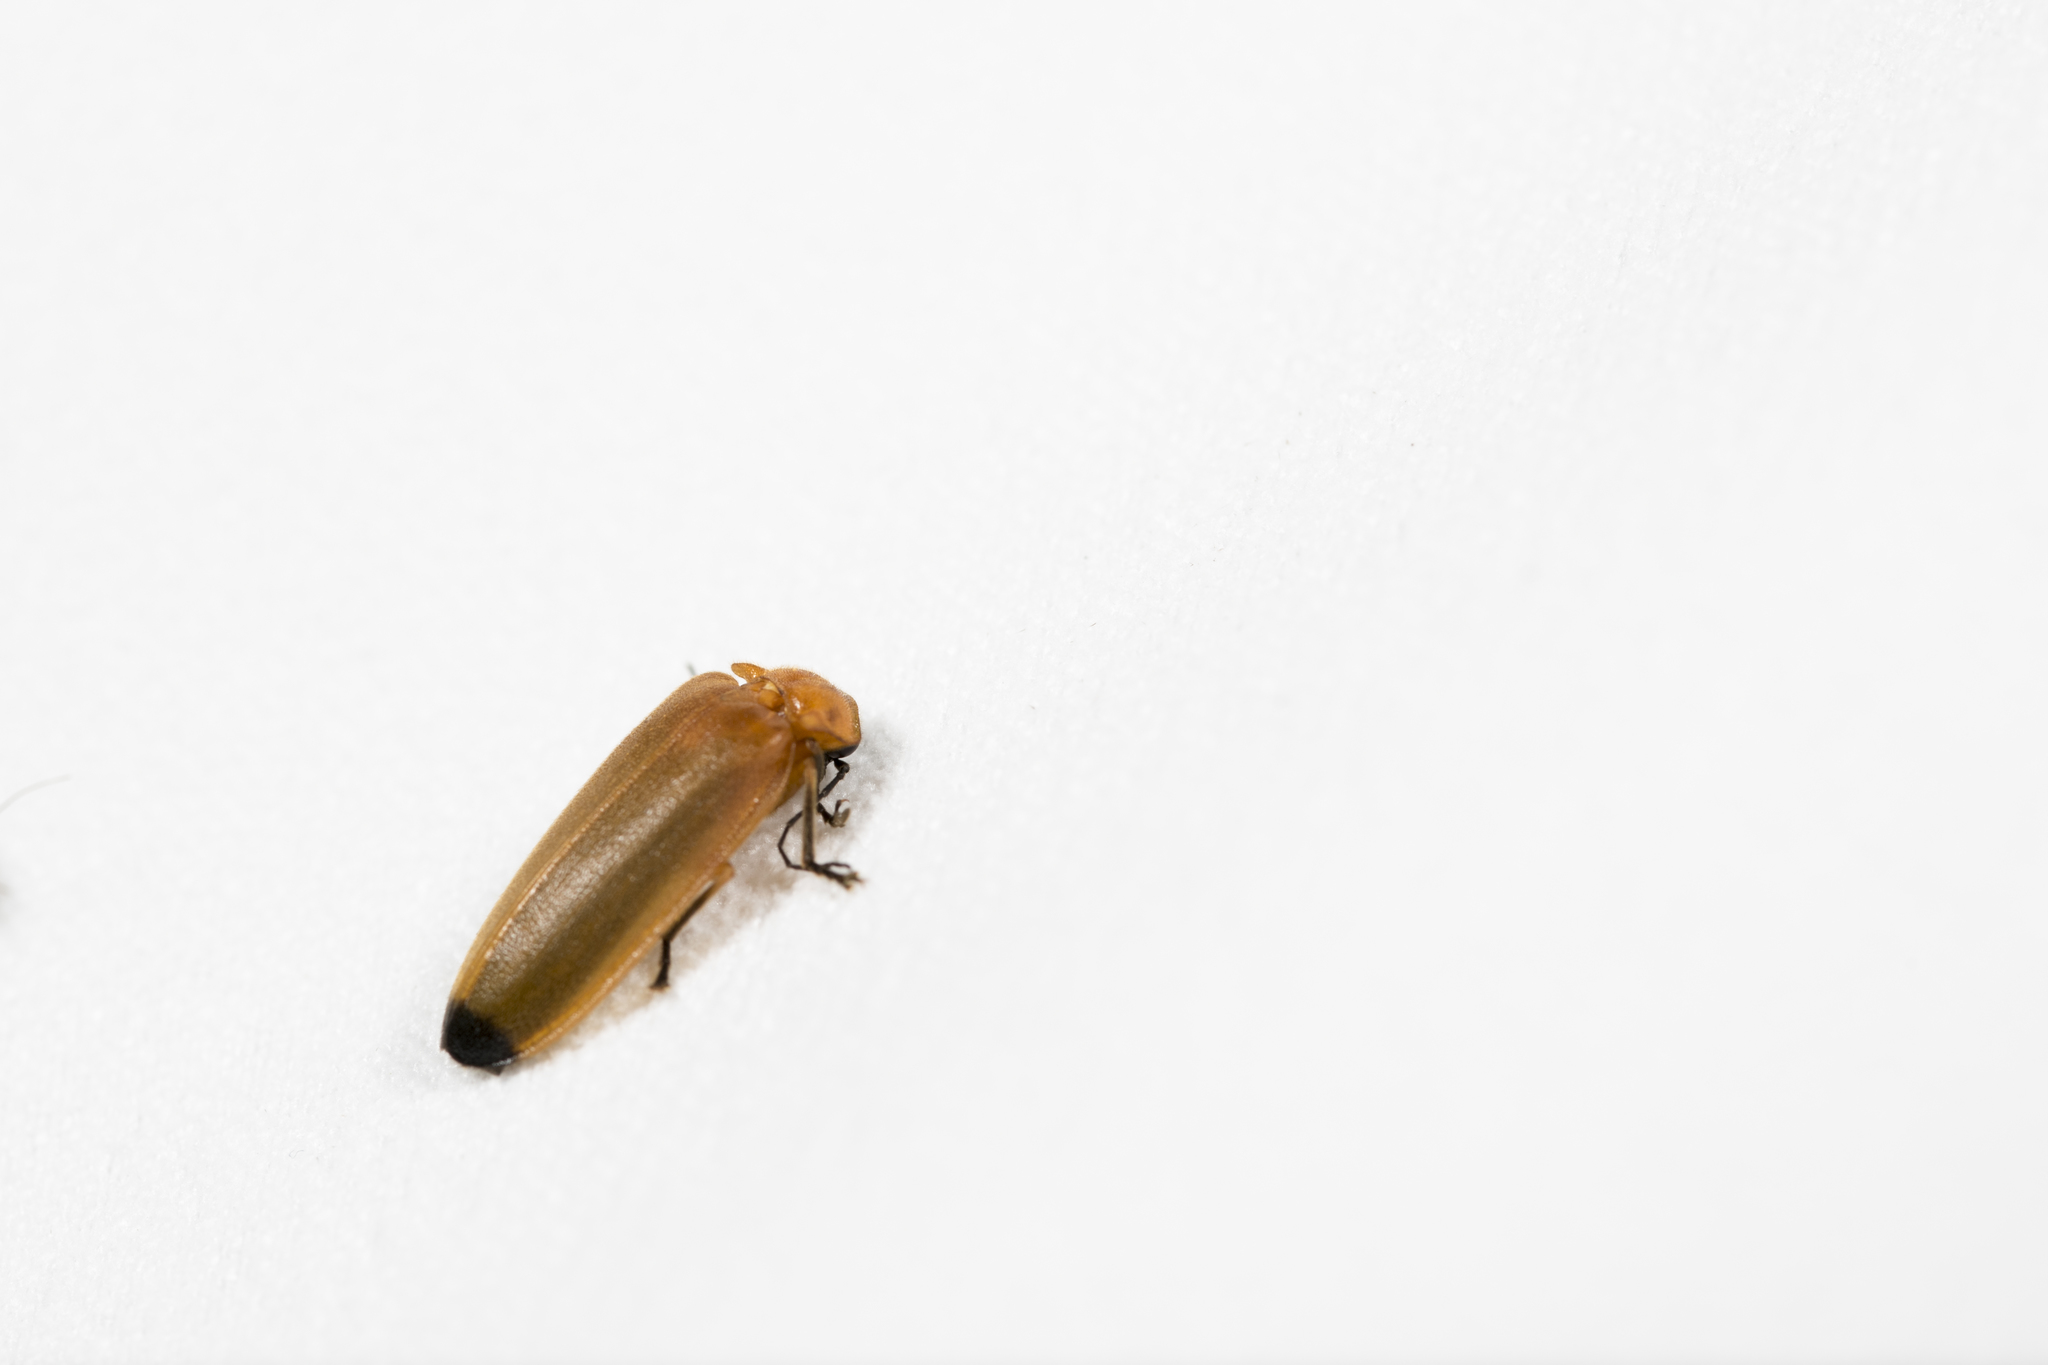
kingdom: Animalia
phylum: Arthropoda
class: Insecta
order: Coleoptera
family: Lampyridae
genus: Abscondita
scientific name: Abscondita anceyi
